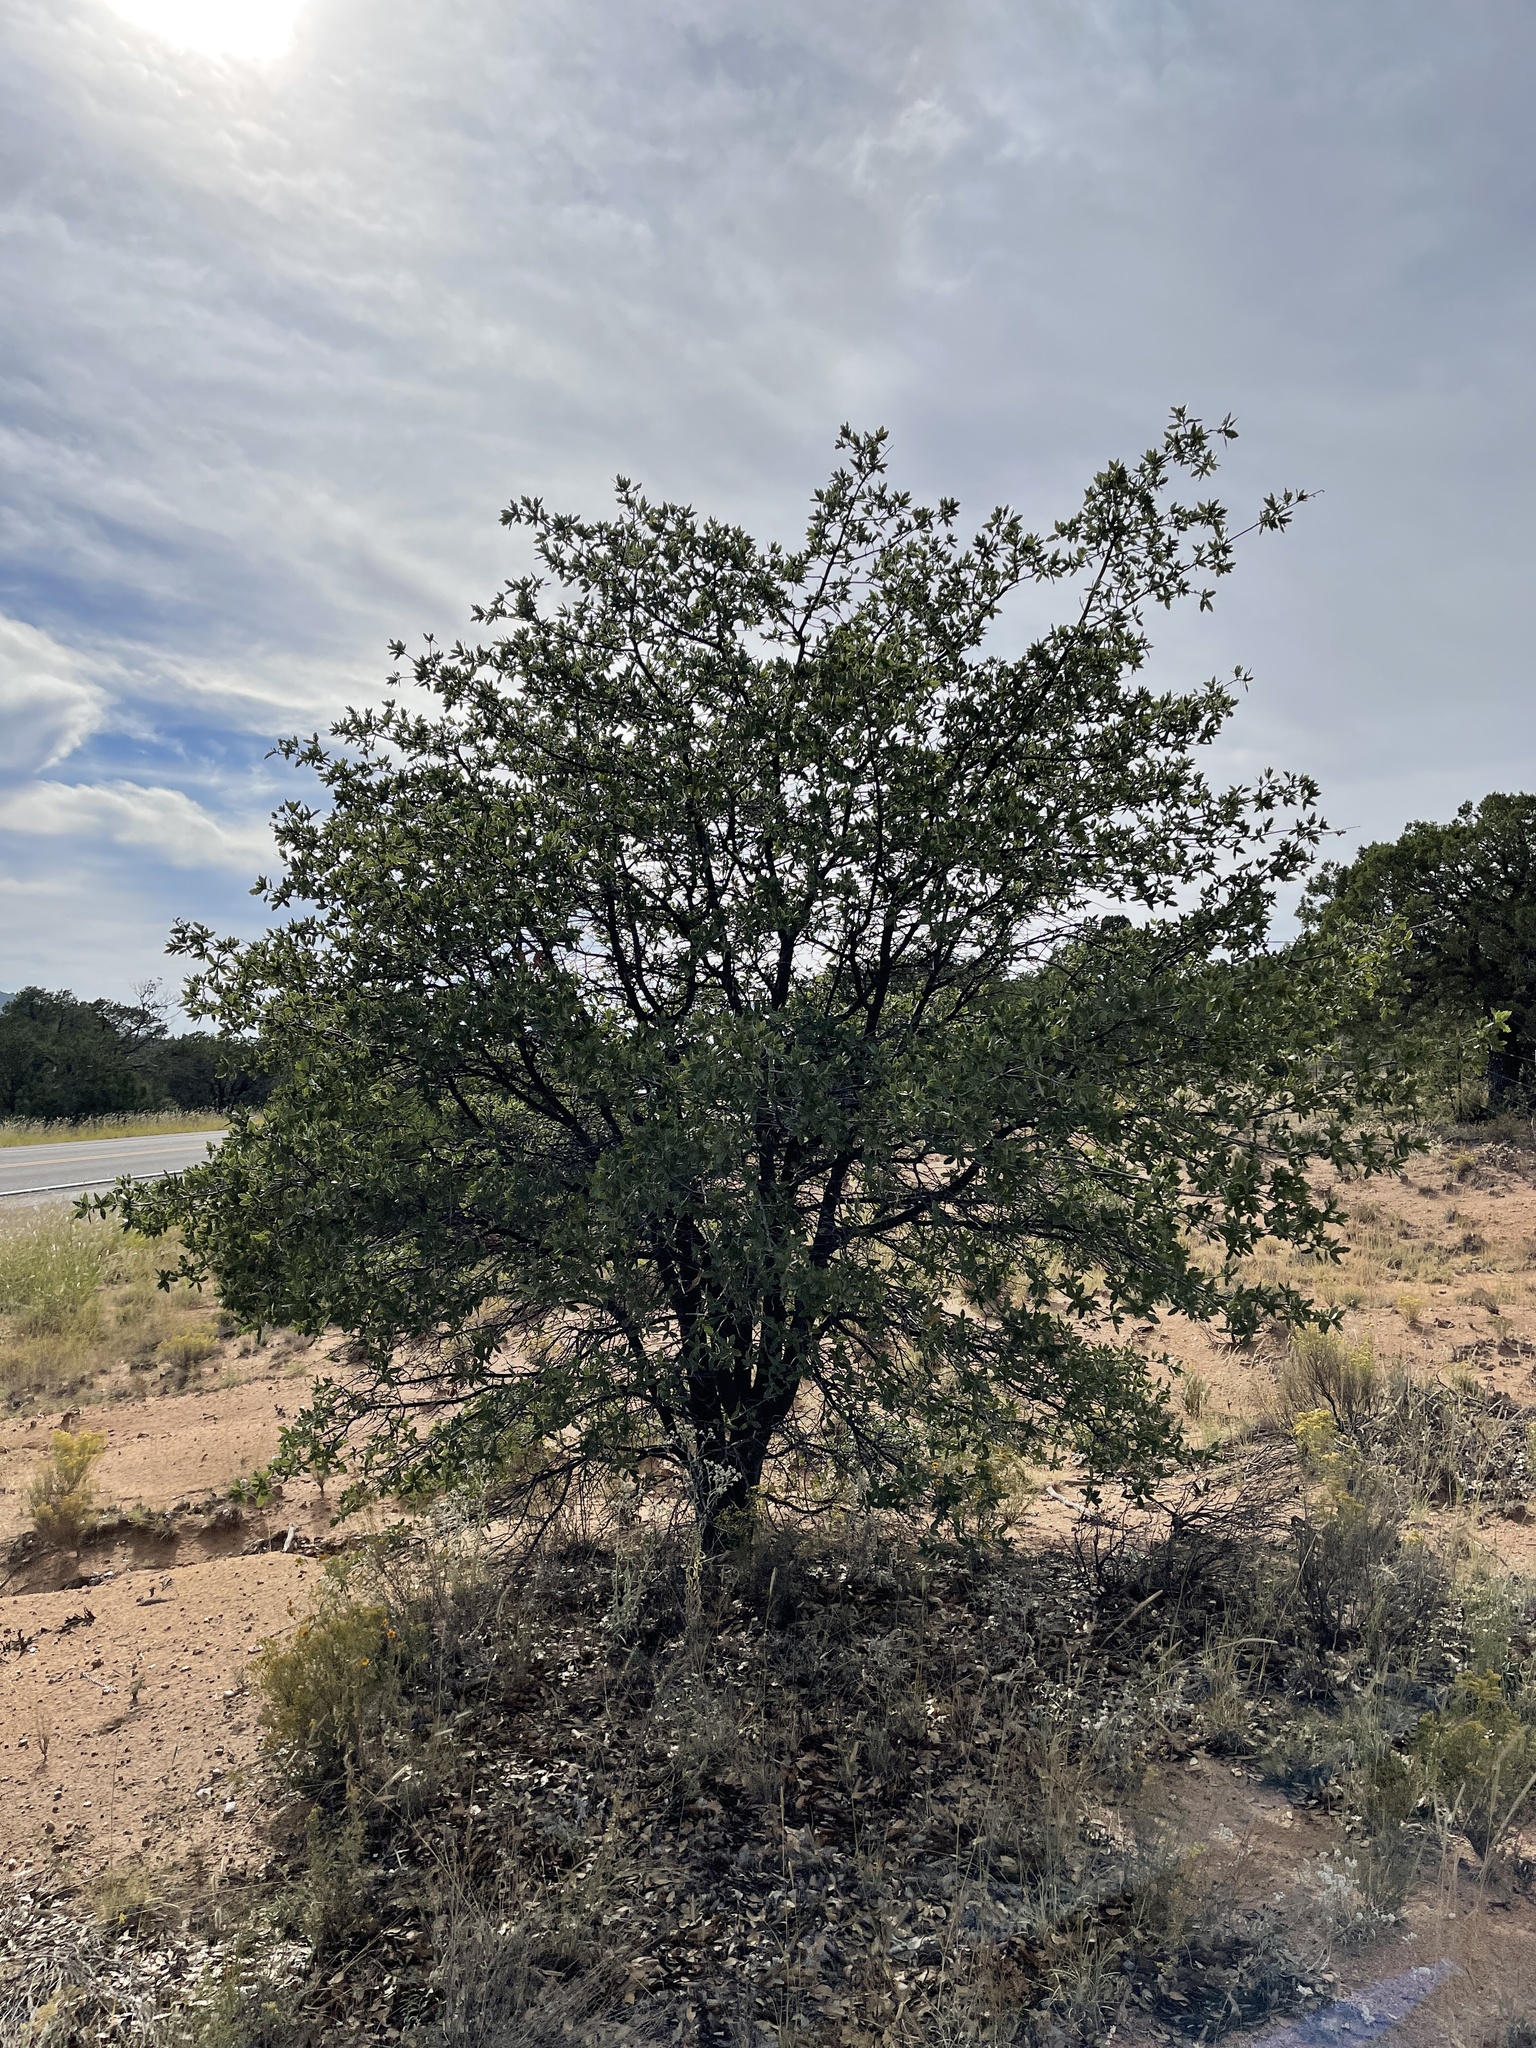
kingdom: Plantae
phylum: Tracheophyta
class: Magnoliopsida
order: Fagales
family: Fagaceae
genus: Quercus
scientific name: Quercus emoryi
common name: Emory oak
